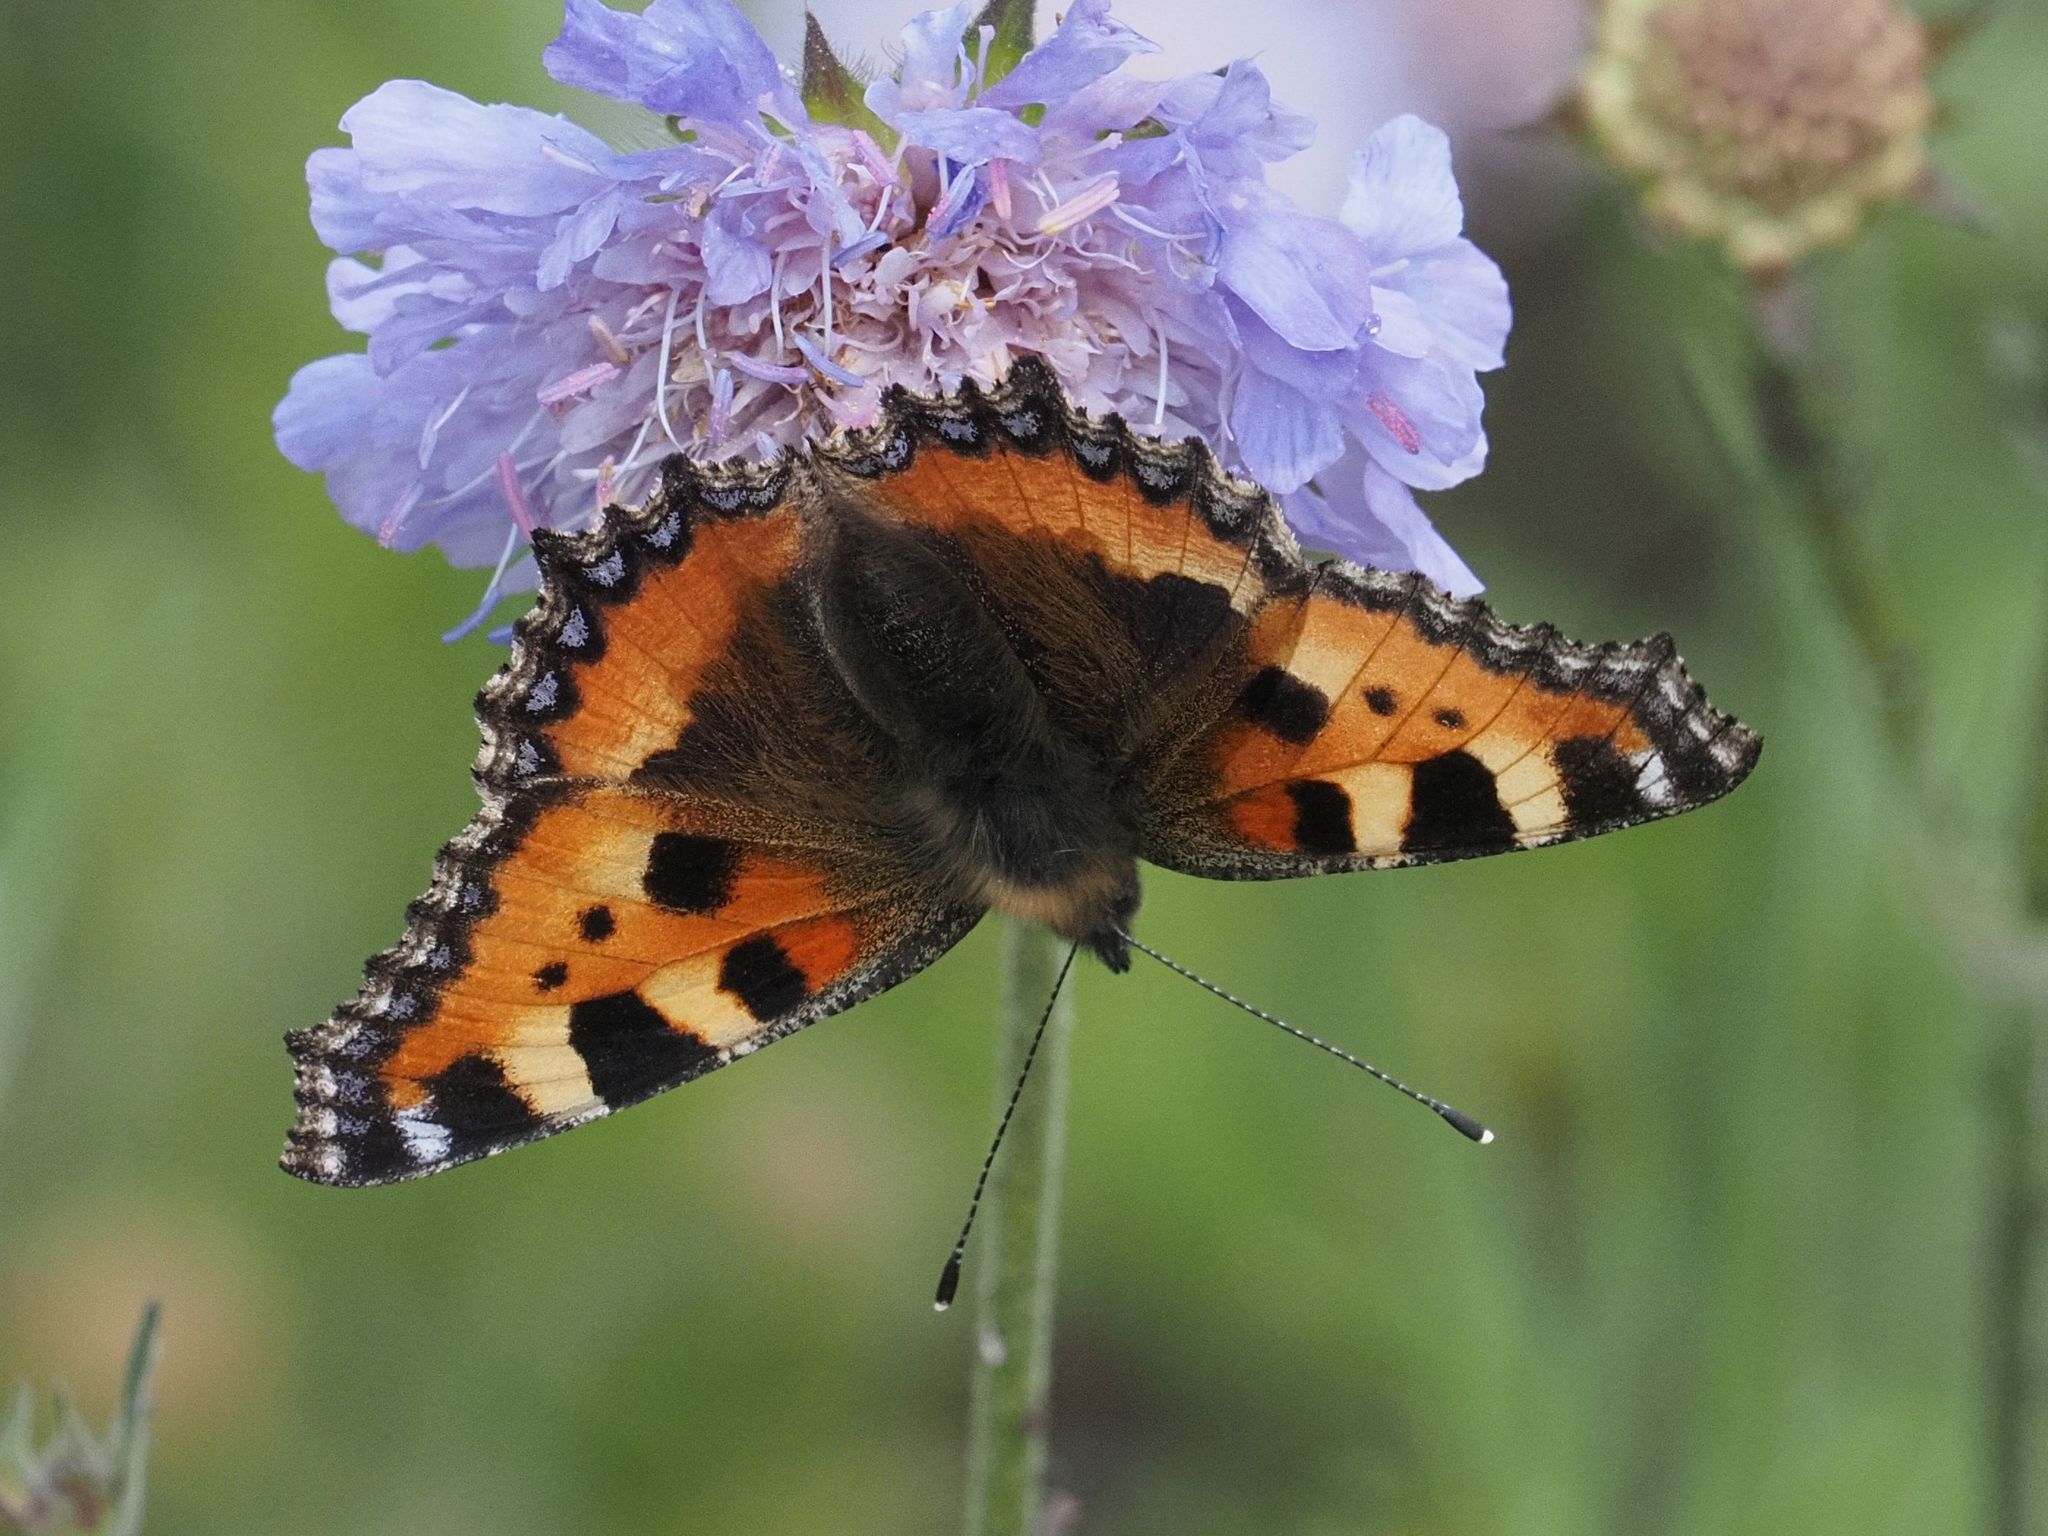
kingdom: Animalia
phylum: Arthropoda
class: Insecta
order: Lepidoptera
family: Nymphalidae
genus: Aglais
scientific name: Aglais urticae
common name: Small tortoiseshell
